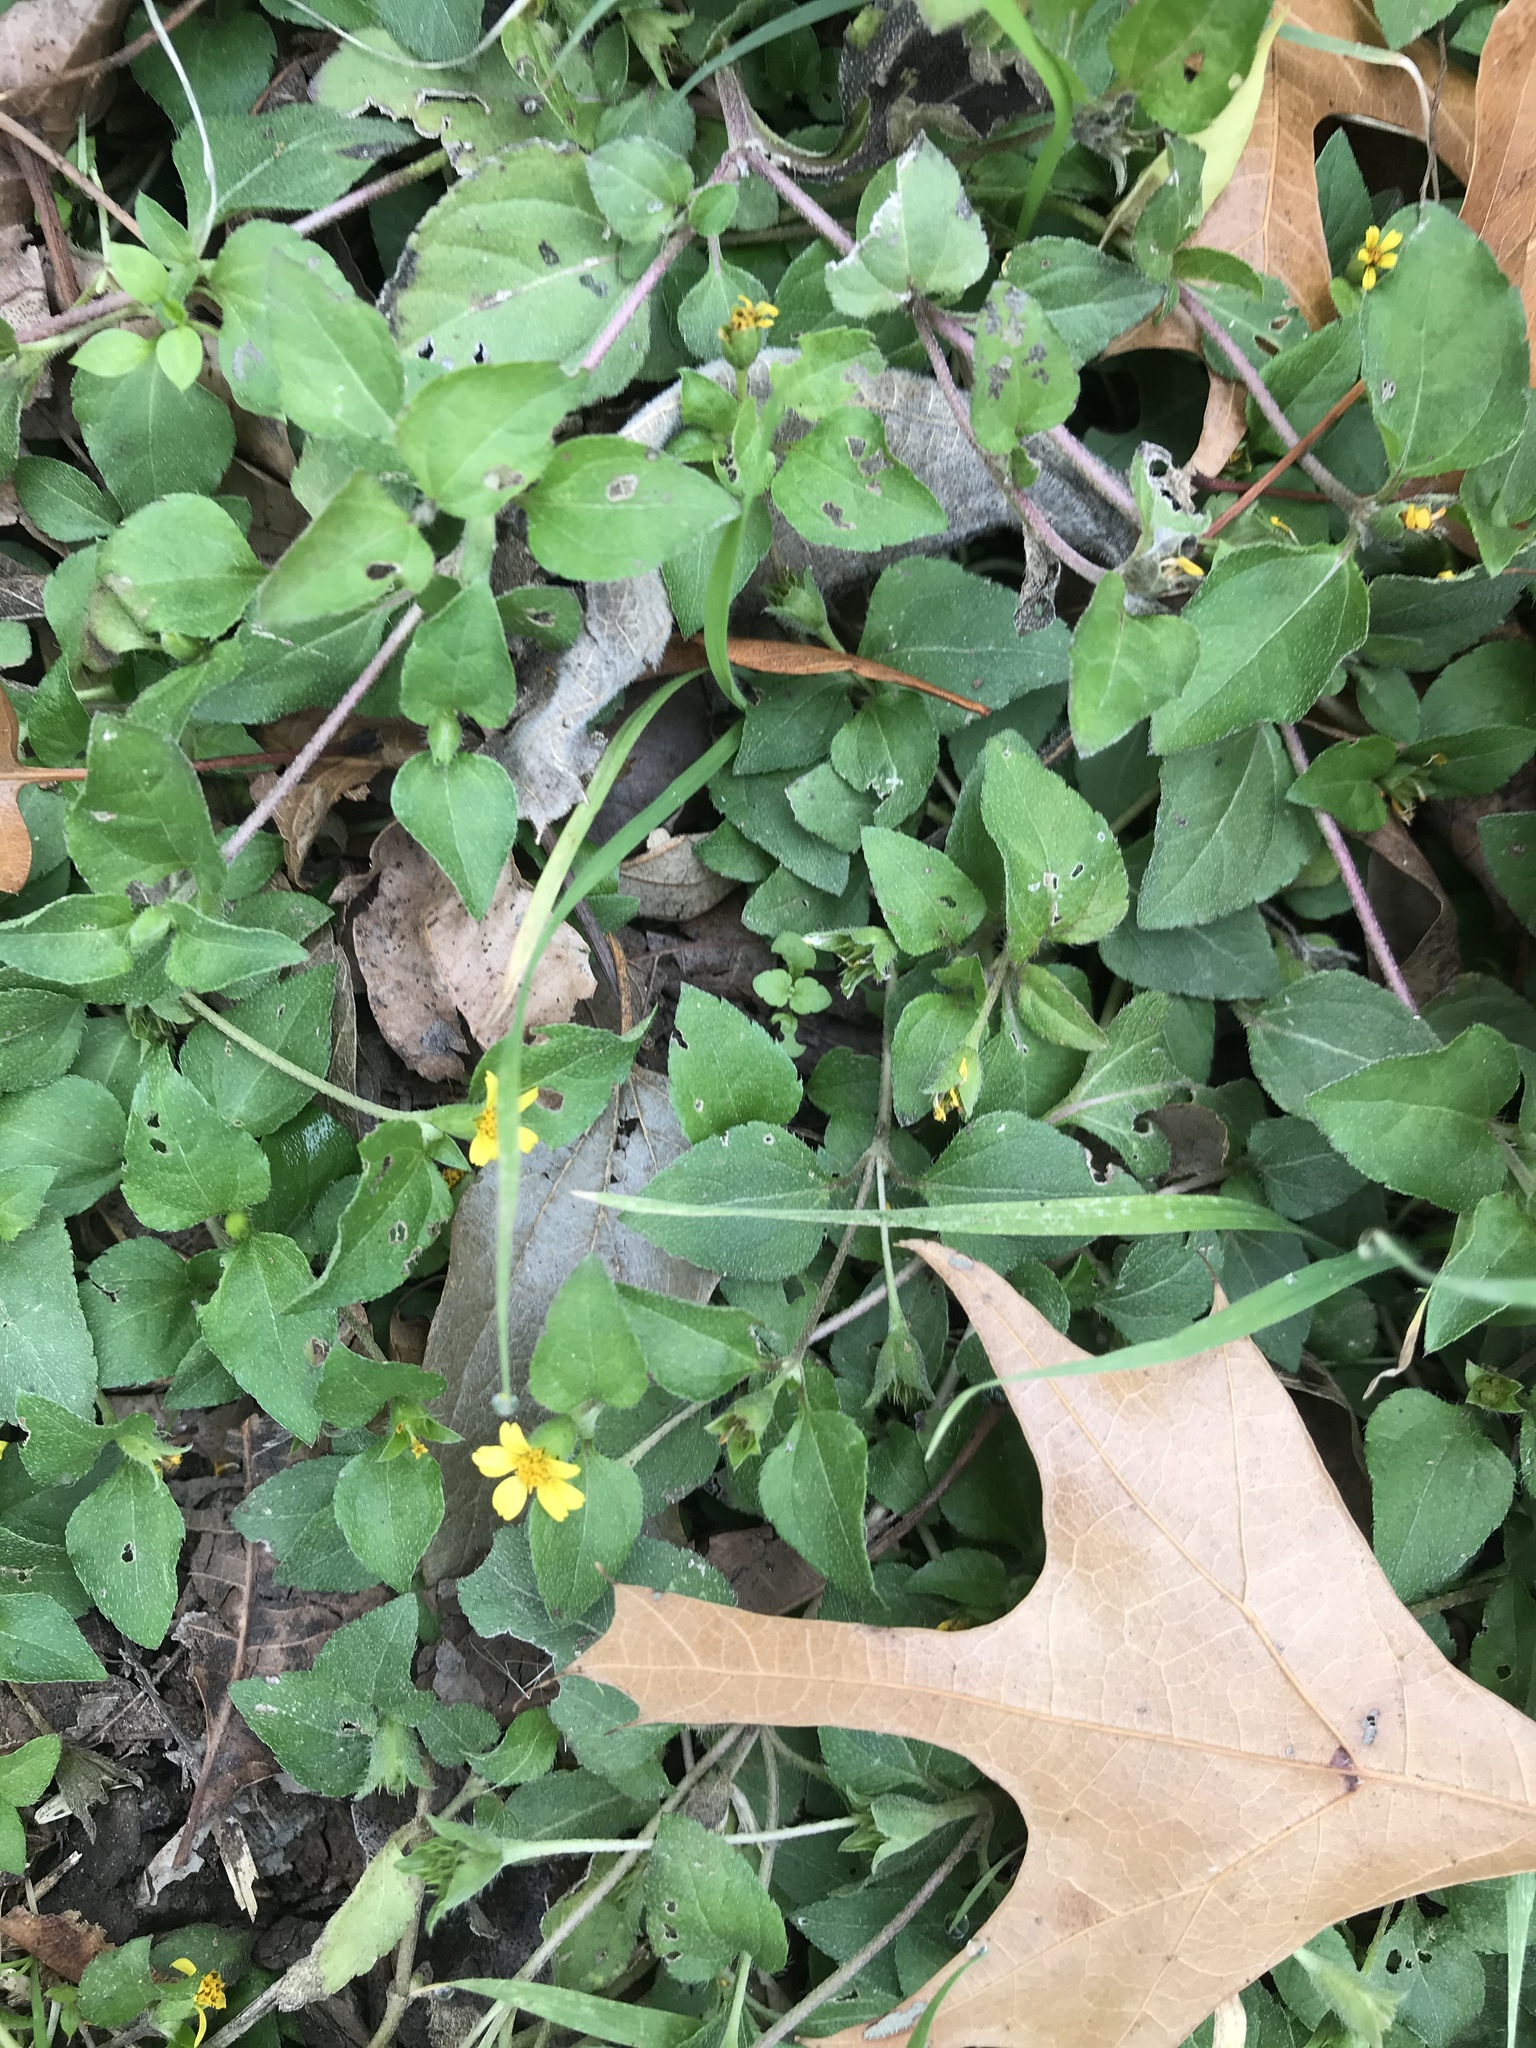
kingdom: Plantae
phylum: Tracheophyta
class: Magnoliopsida
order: Asterales
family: Asteraceae
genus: Calyptocarpus
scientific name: Calyptocarpus vialis
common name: Straggler daisy
